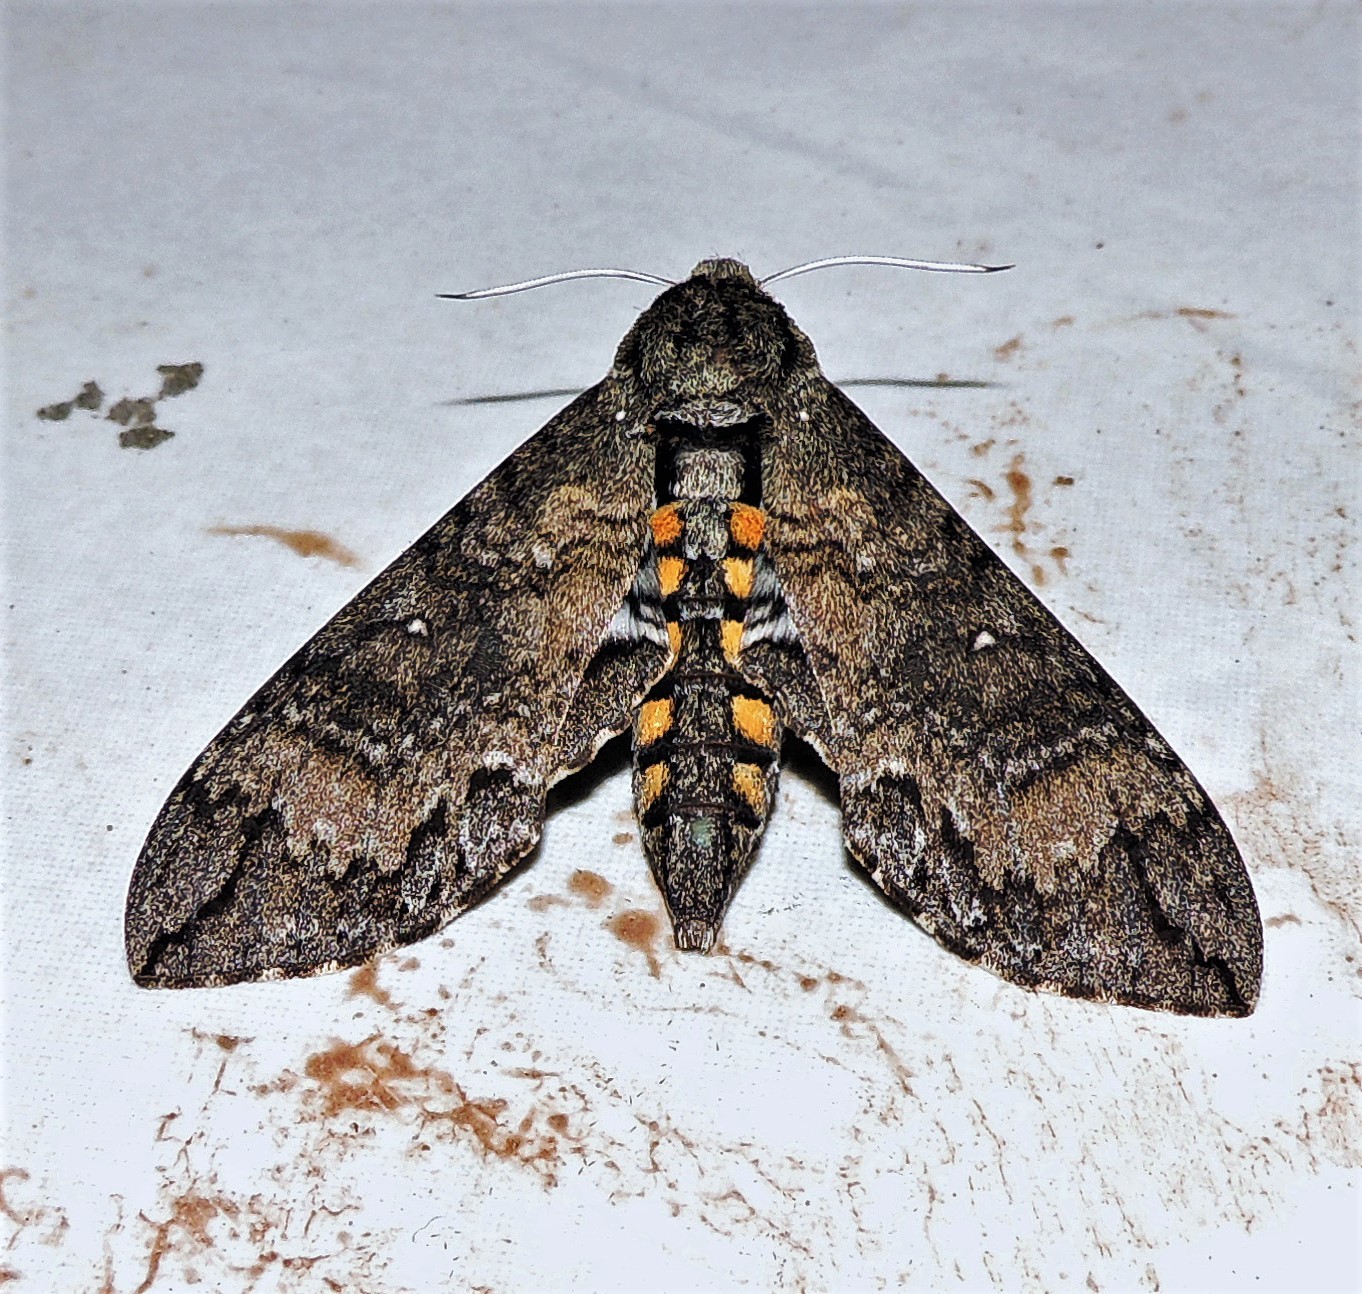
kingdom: Animalia
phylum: Arthropoda
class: Insecta
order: Lepidoptera
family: Sphingidae
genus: Manduca
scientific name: Manduca exiguus
